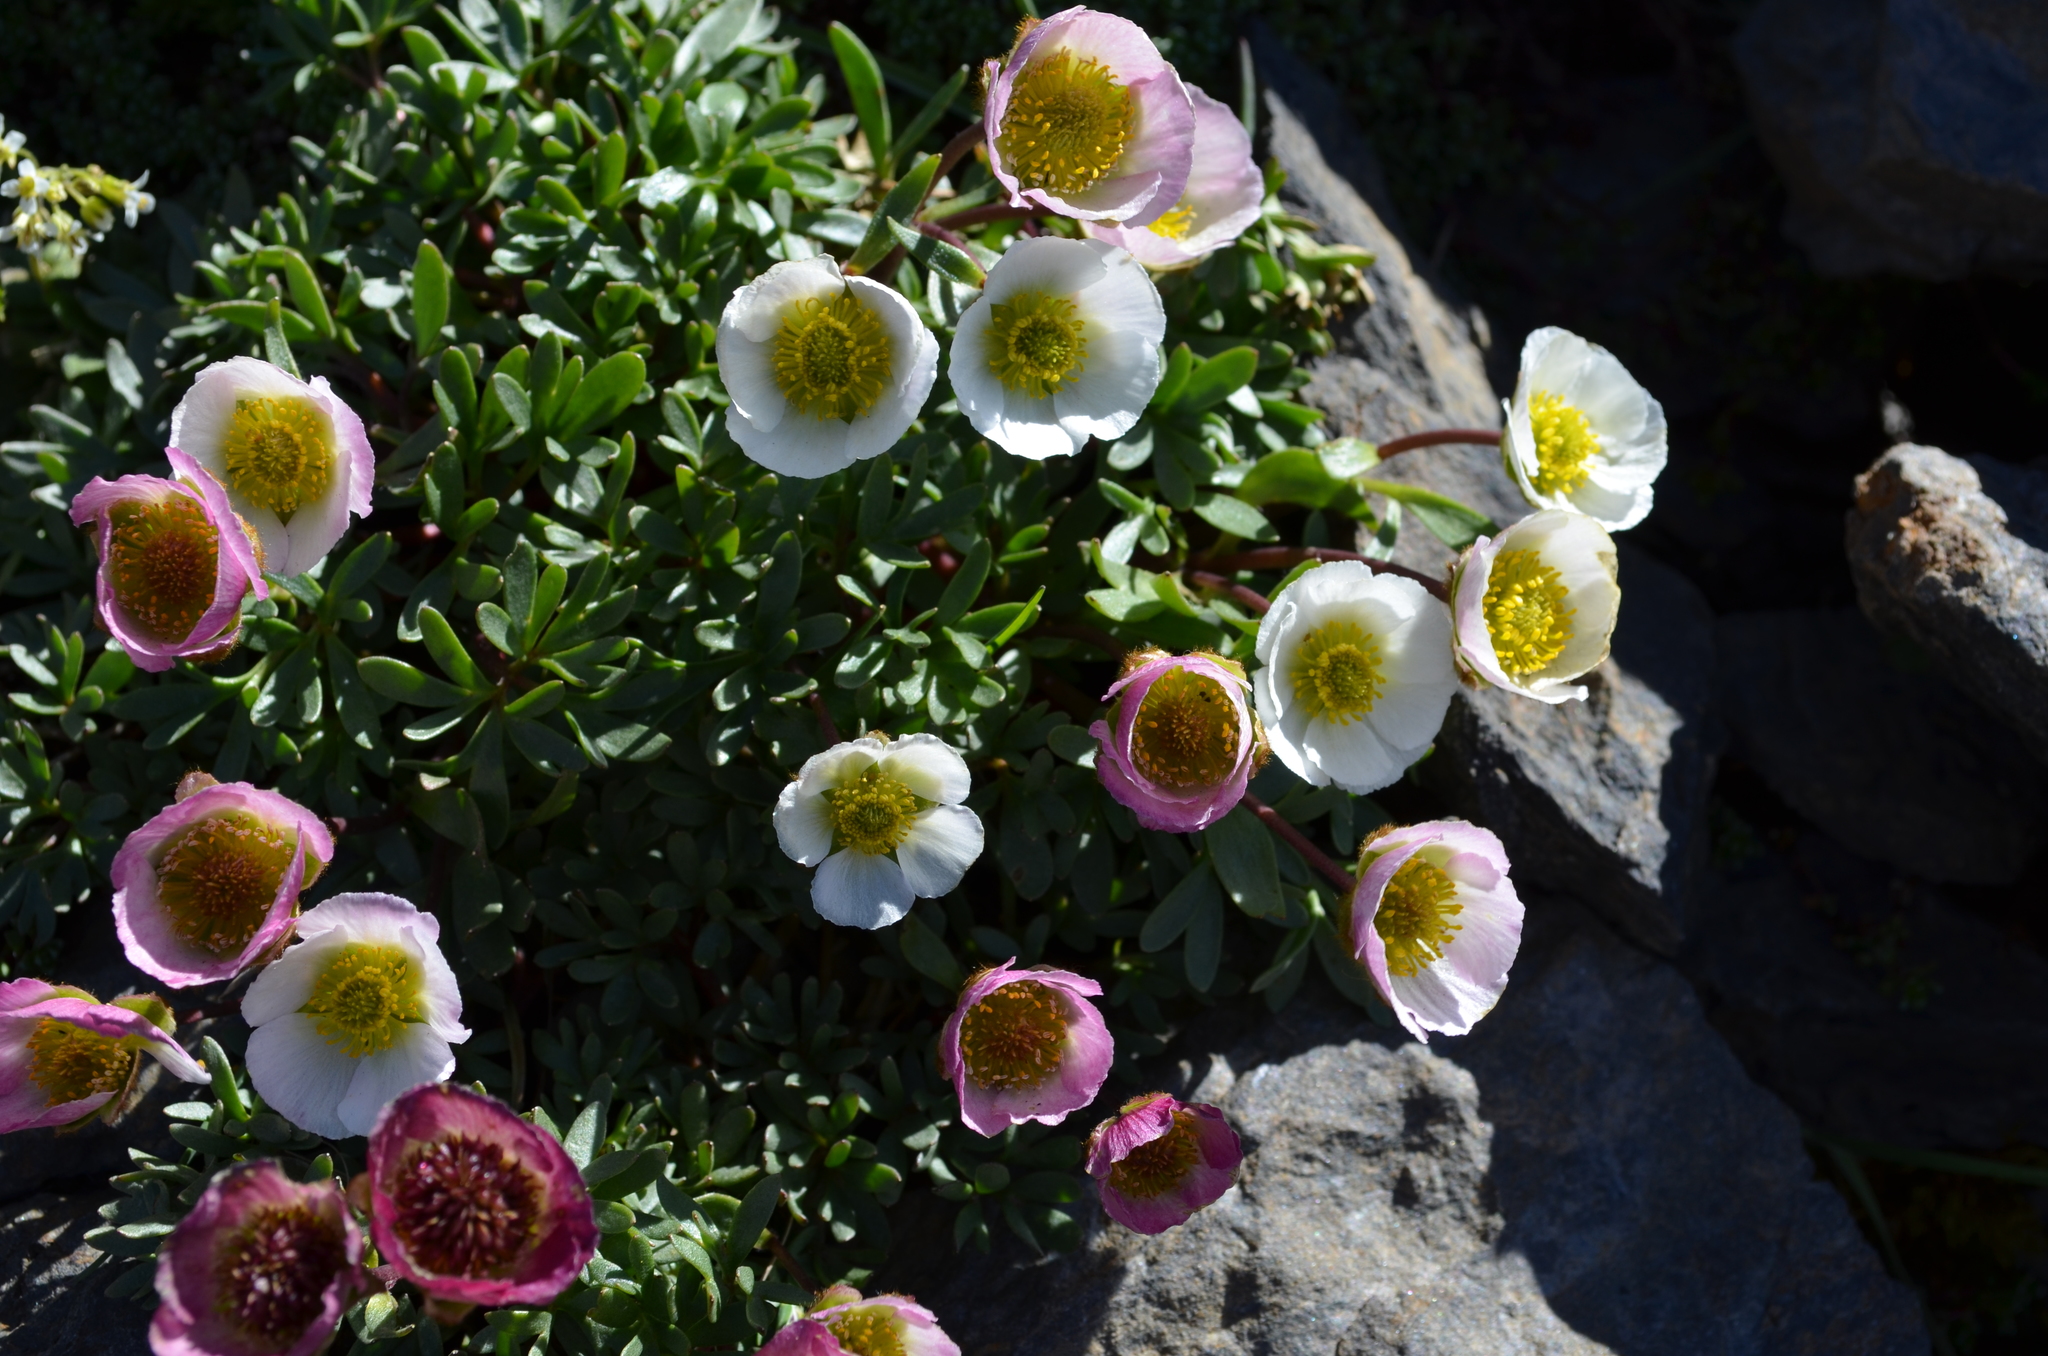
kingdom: Plantae
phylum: Tracheophyta
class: Magnoliopsida
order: Ranunculales
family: Ranunculaceae
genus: Ranunculus
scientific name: Ranunculus glacialis
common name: Glacier buttercup
